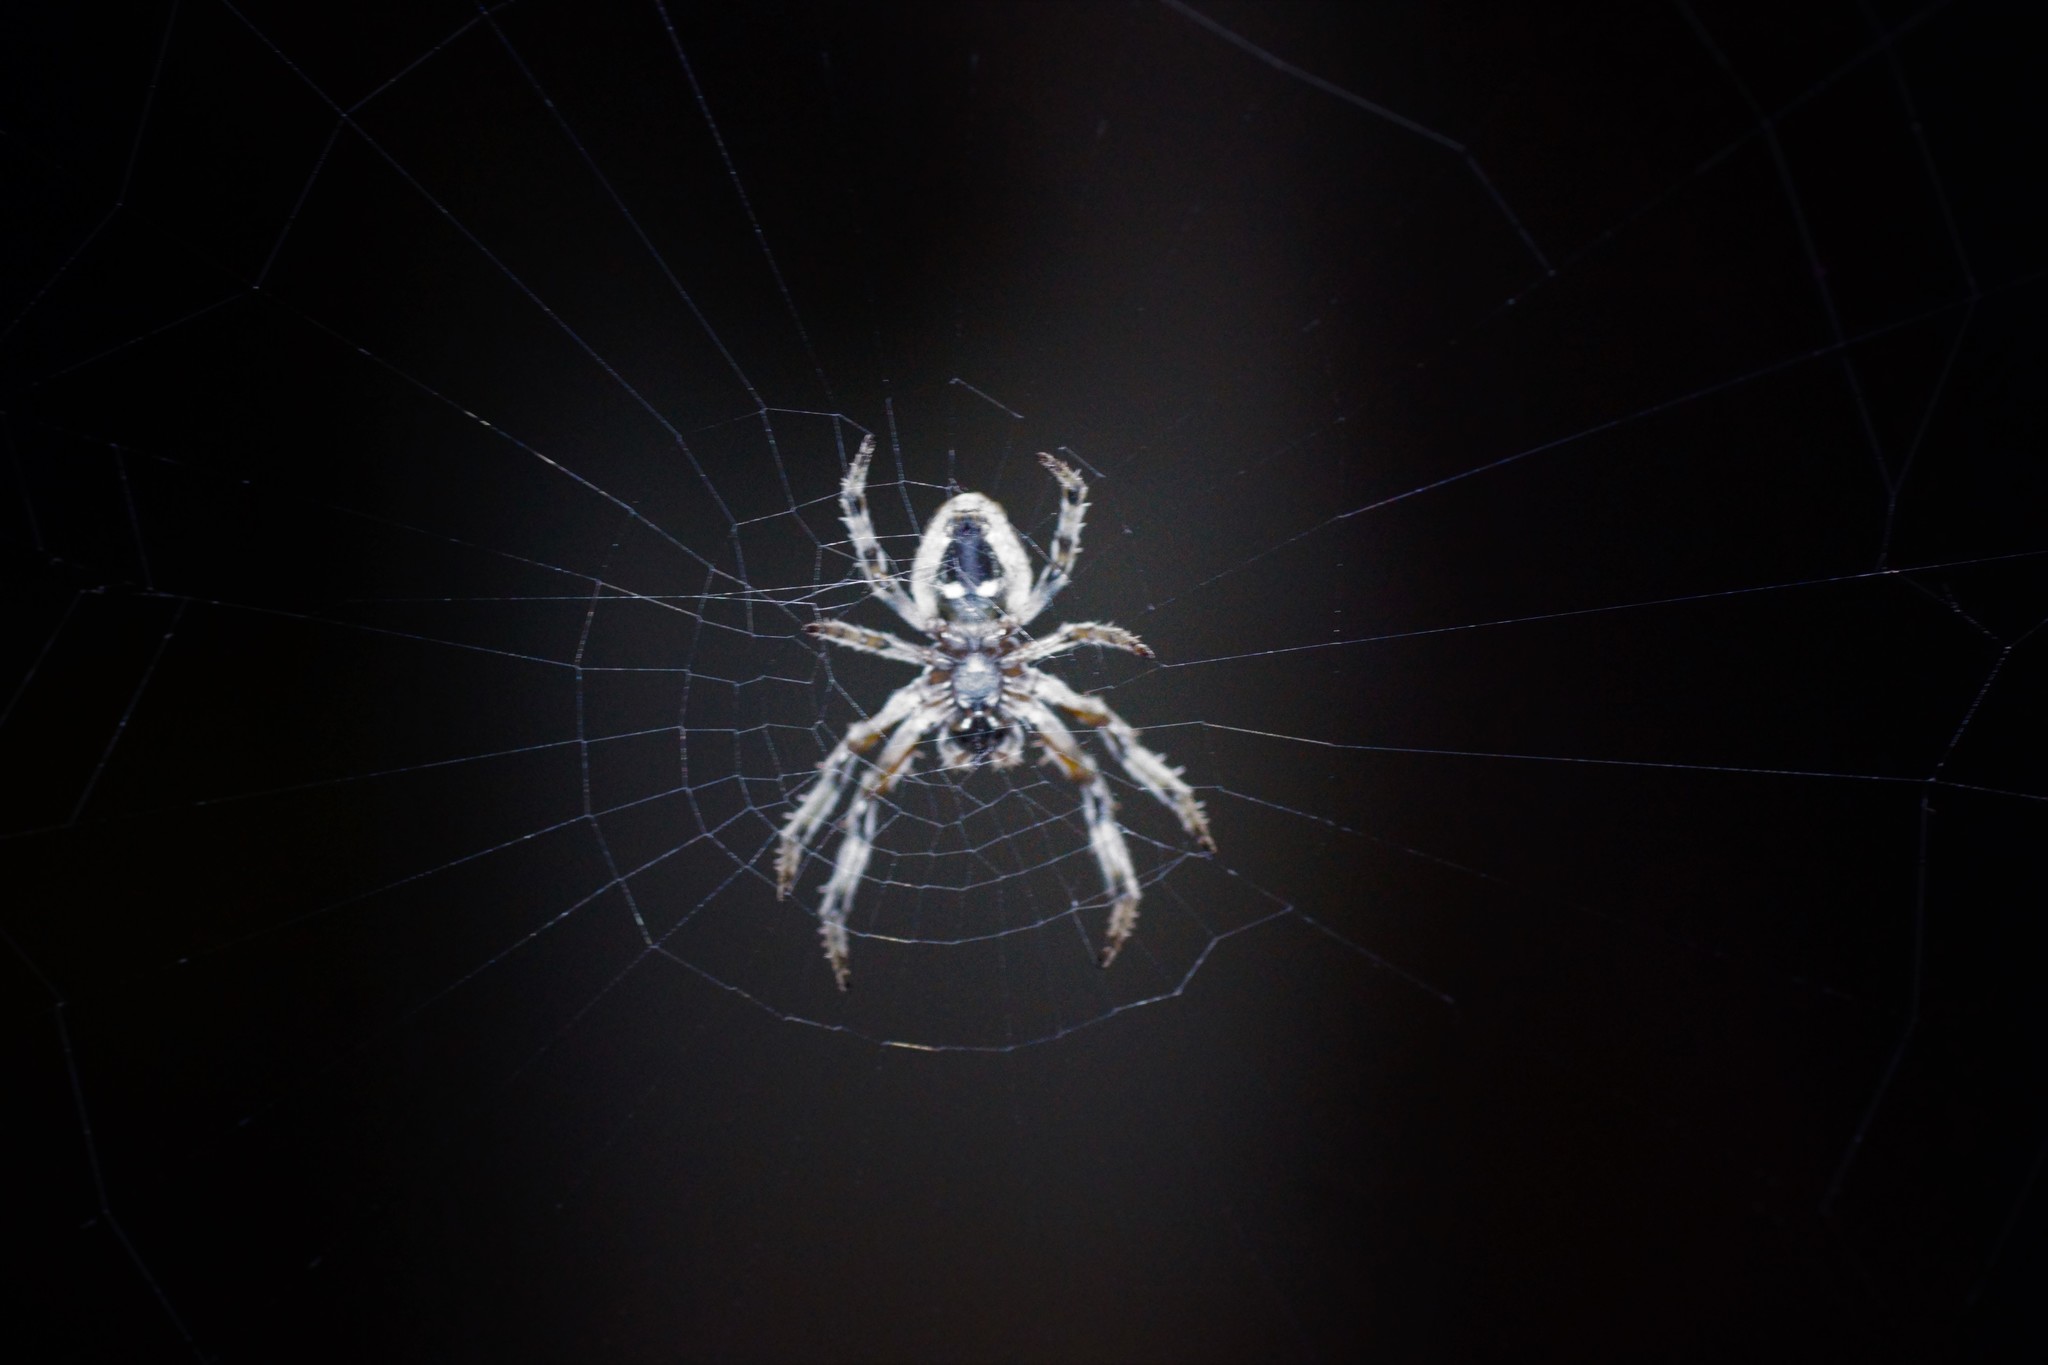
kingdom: Animalia
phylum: Arthropoda
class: Arachnida
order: Araneae
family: Araneidae
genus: Eriophora
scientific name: Eriophora pustulosa
